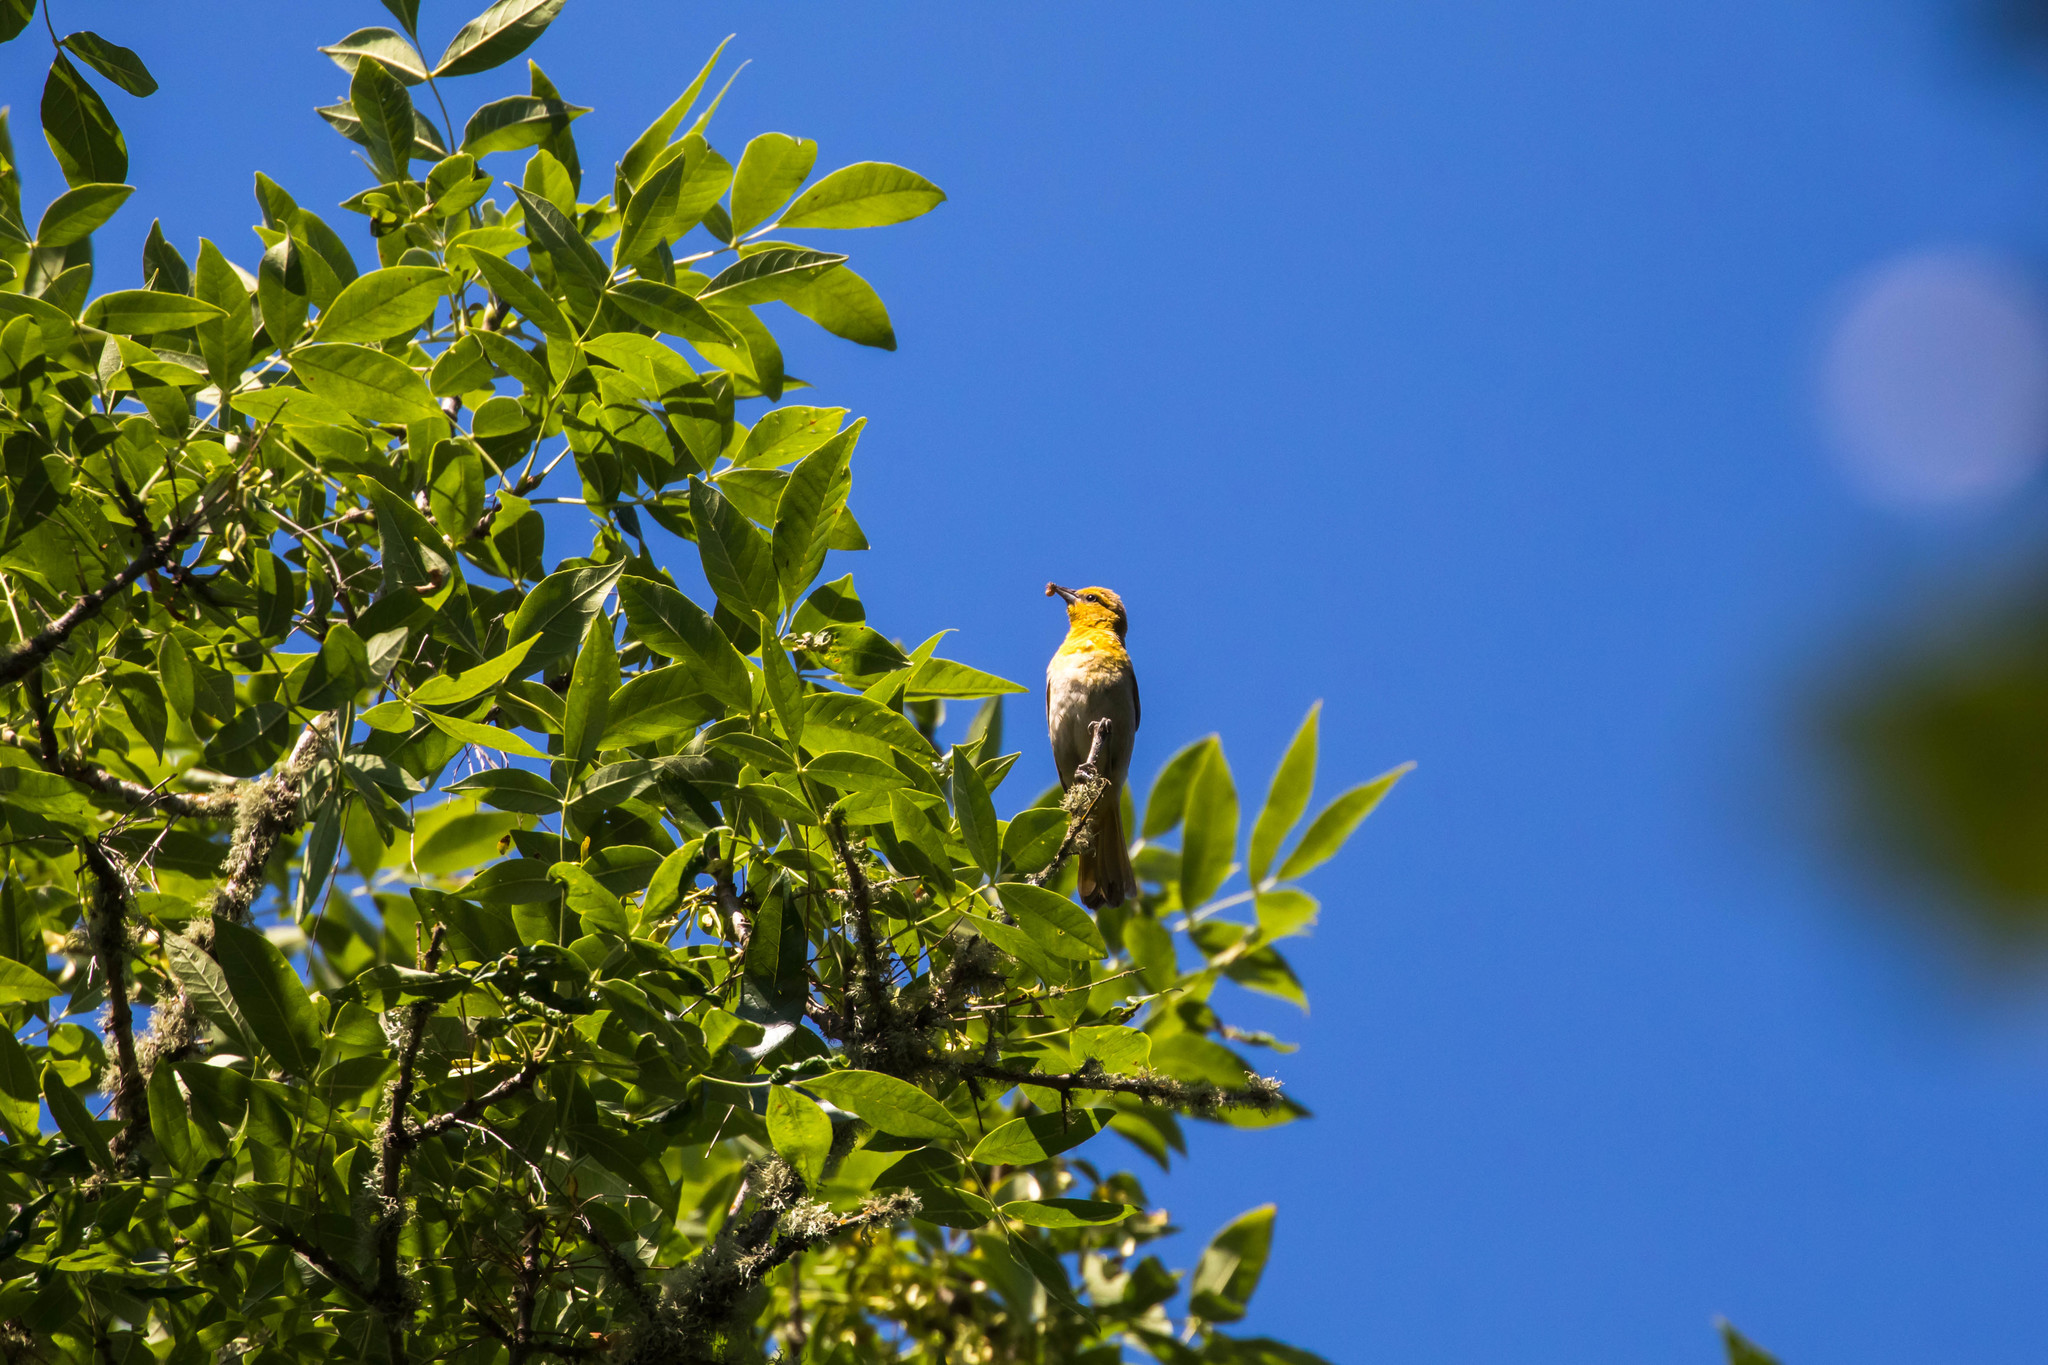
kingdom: Animalia
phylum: Chordata
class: Aves
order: Passeriformes
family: Icteridae
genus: Icterus
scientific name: Icterus bullockii
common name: Bullock's oriole
